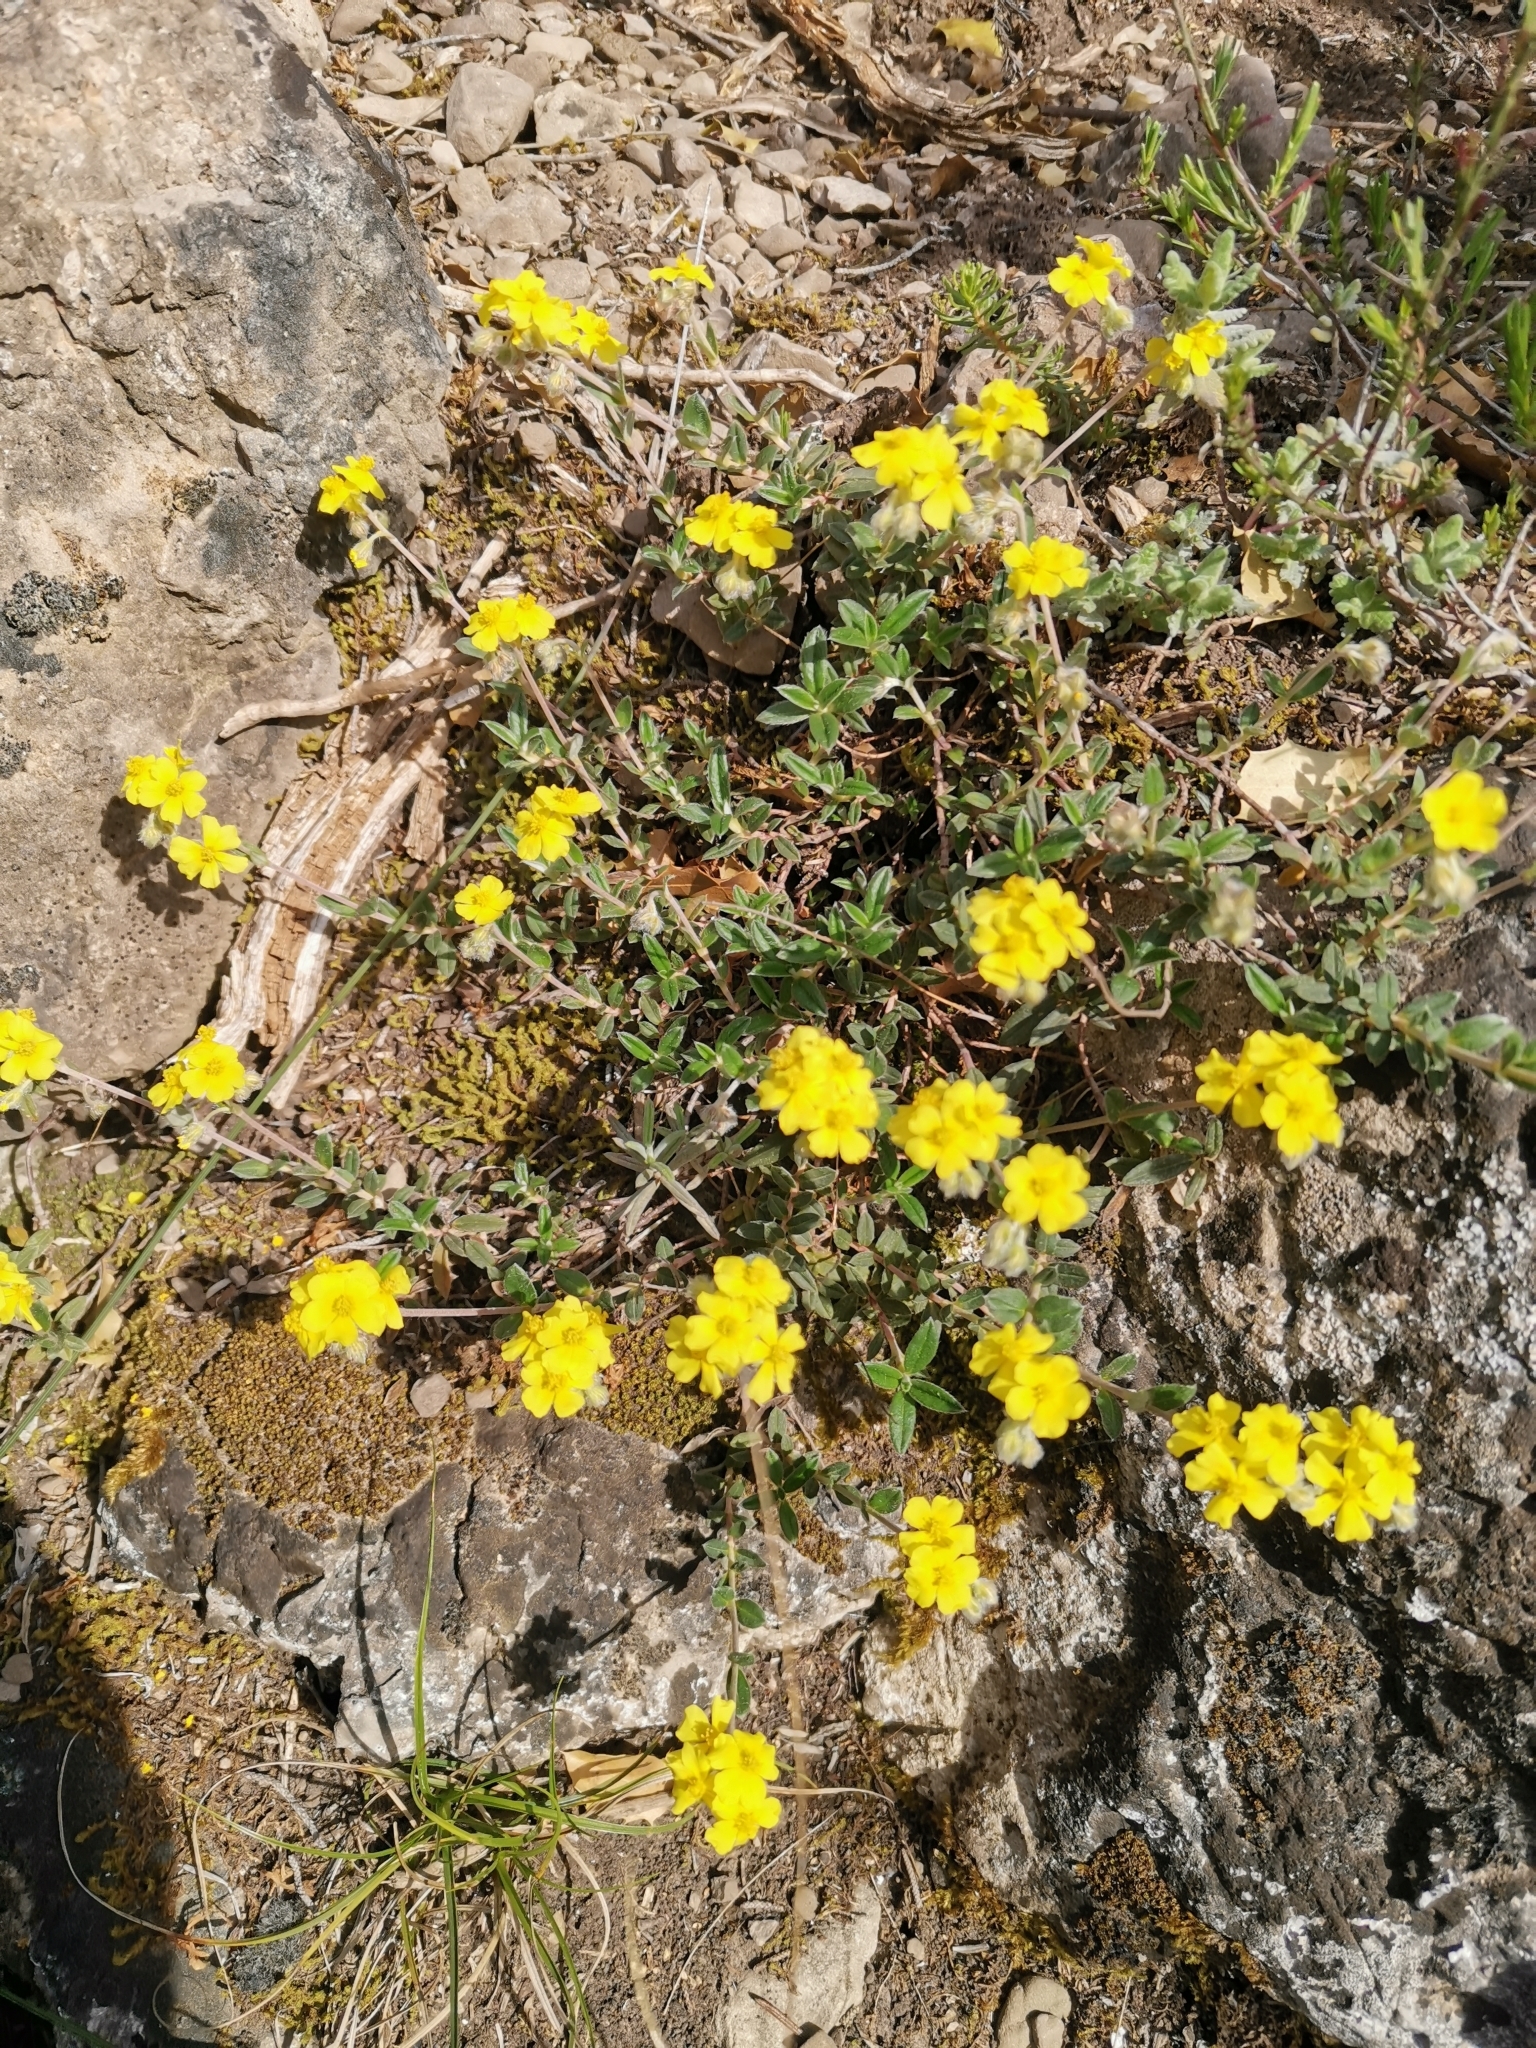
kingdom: Plantae
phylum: Tracheophyta
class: Magnoliopsida
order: Malvales
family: Cistaceae
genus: Helianthemum
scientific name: Helianthemum oelandicum
